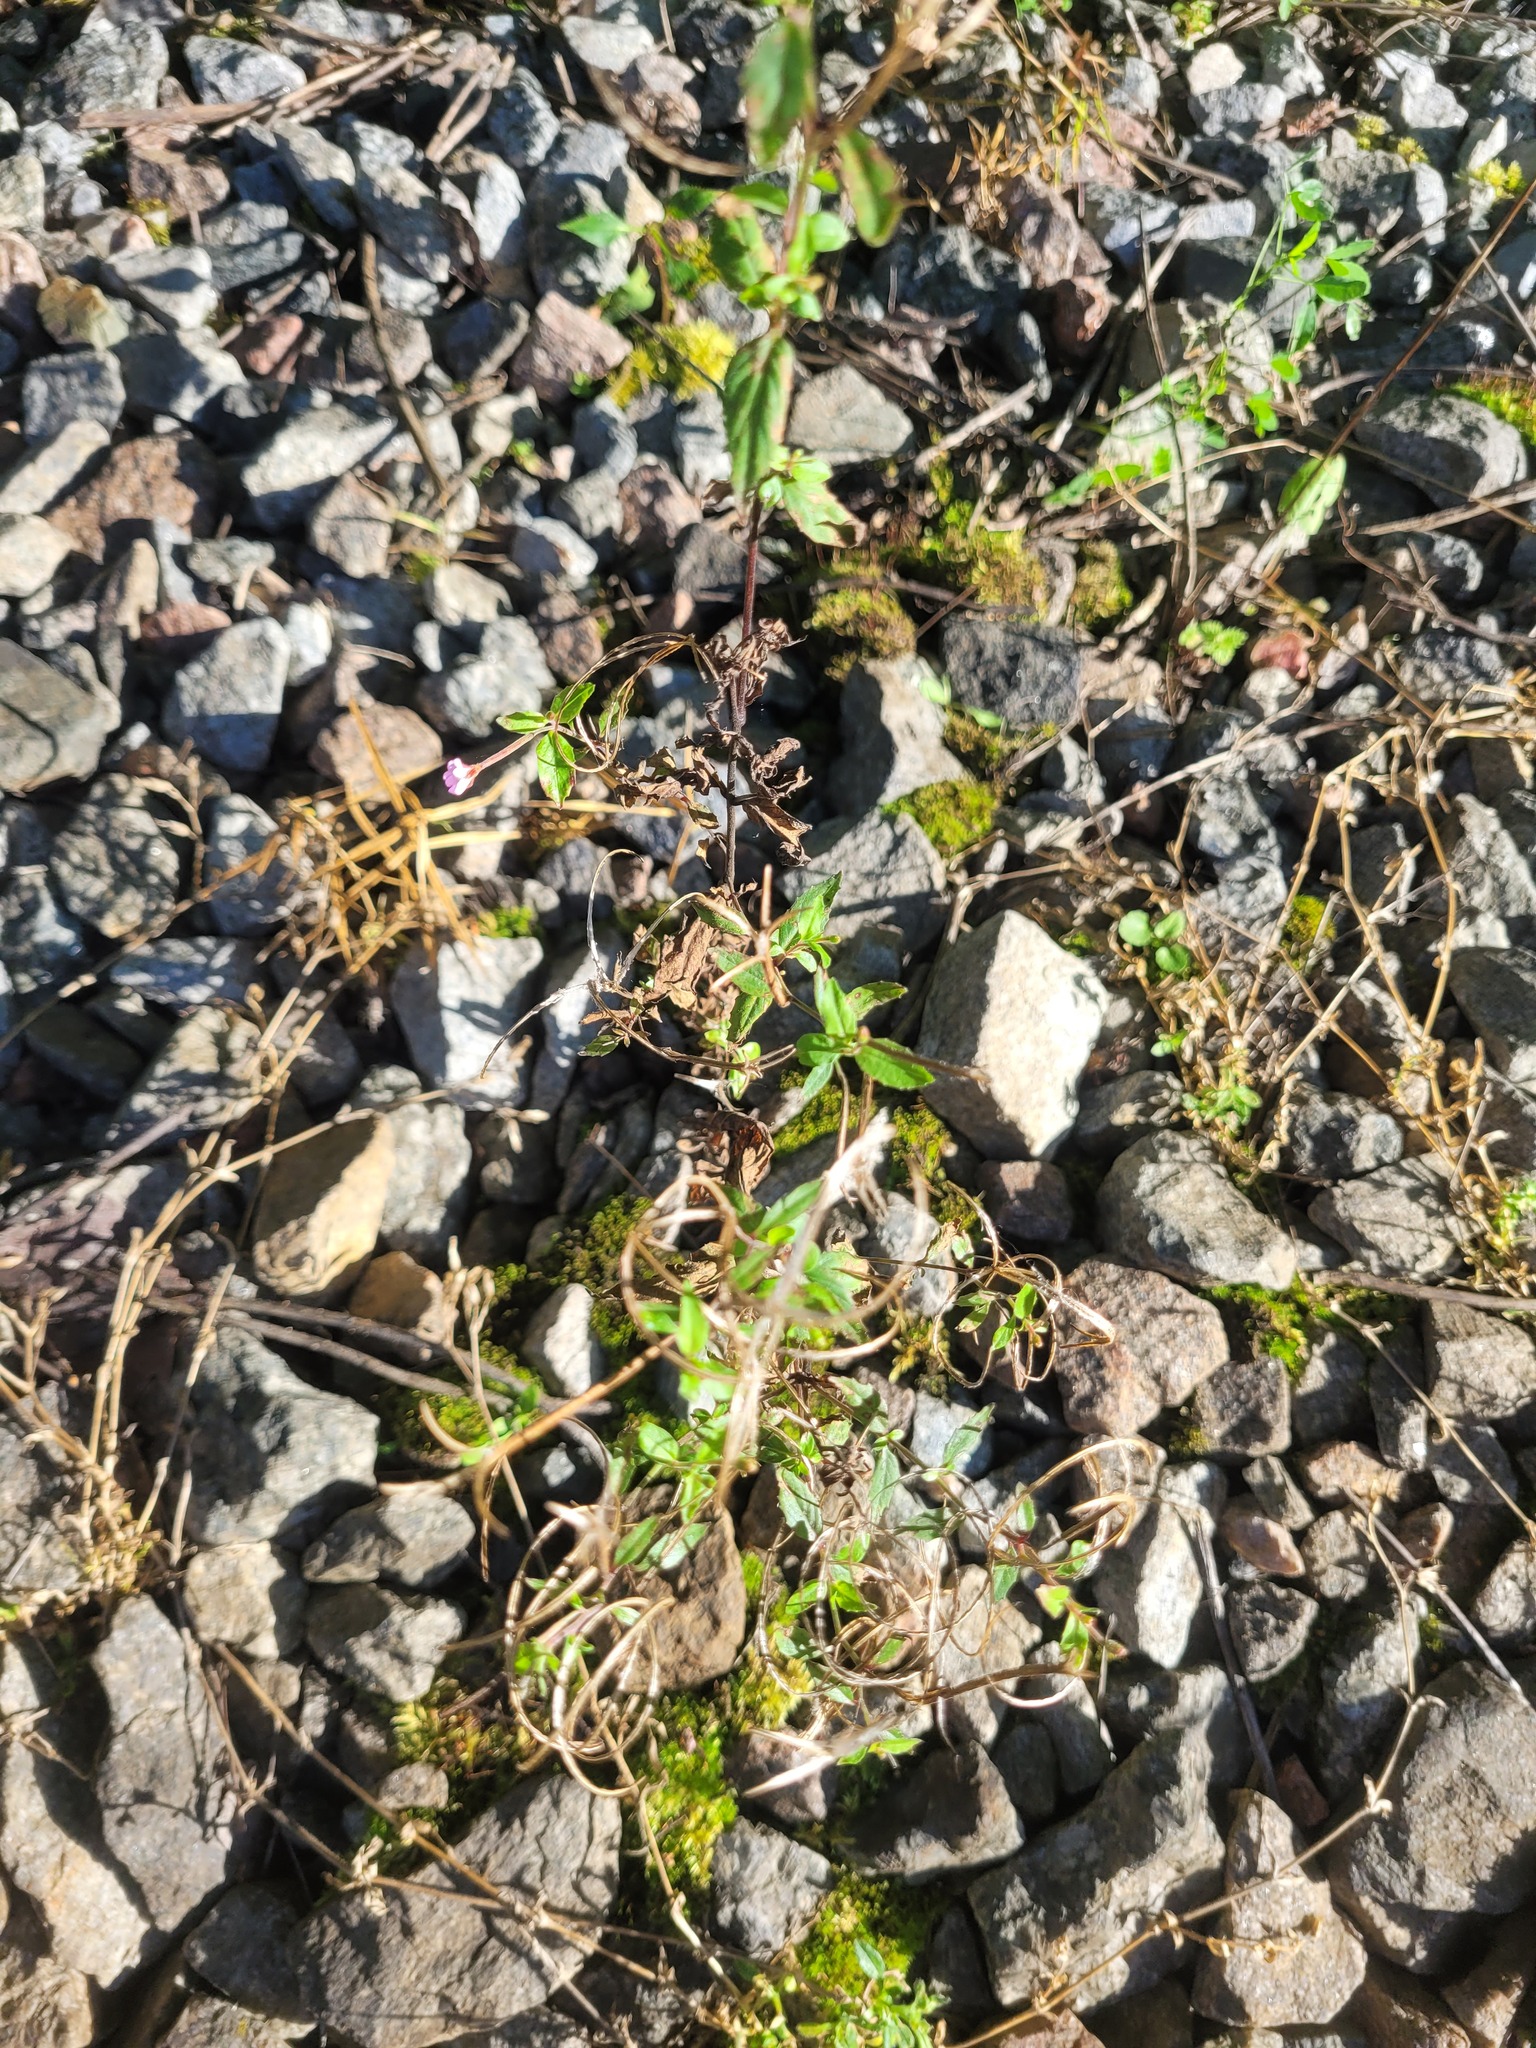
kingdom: Plantae
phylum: Tracheophyta
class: Magnoliopsida
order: Myrtales
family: Onagraceae
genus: Epilobium
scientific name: Epilobium montanum
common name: Broad-leaved willowherb
